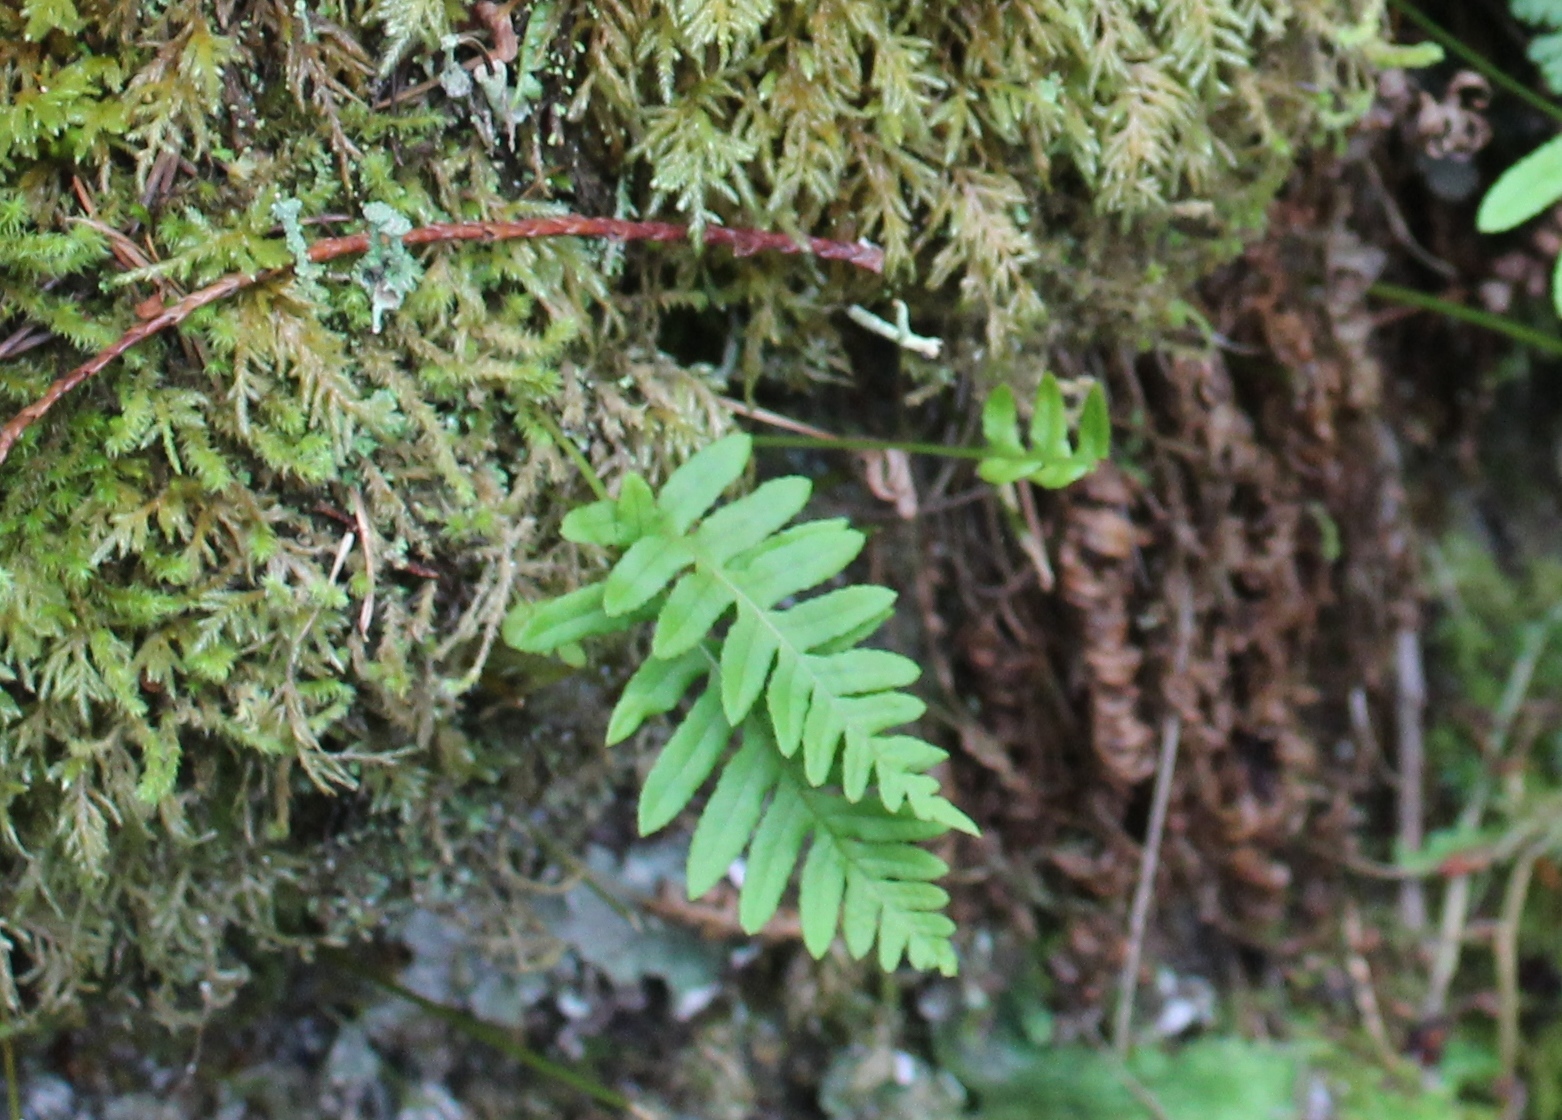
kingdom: Plantae
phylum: Tracheophyta
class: Polypodiopsida
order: Polypodiales
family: Polypodiaceae
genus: Polypodium
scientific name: Polypodium glycyrrhiza
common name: Licorice fern
